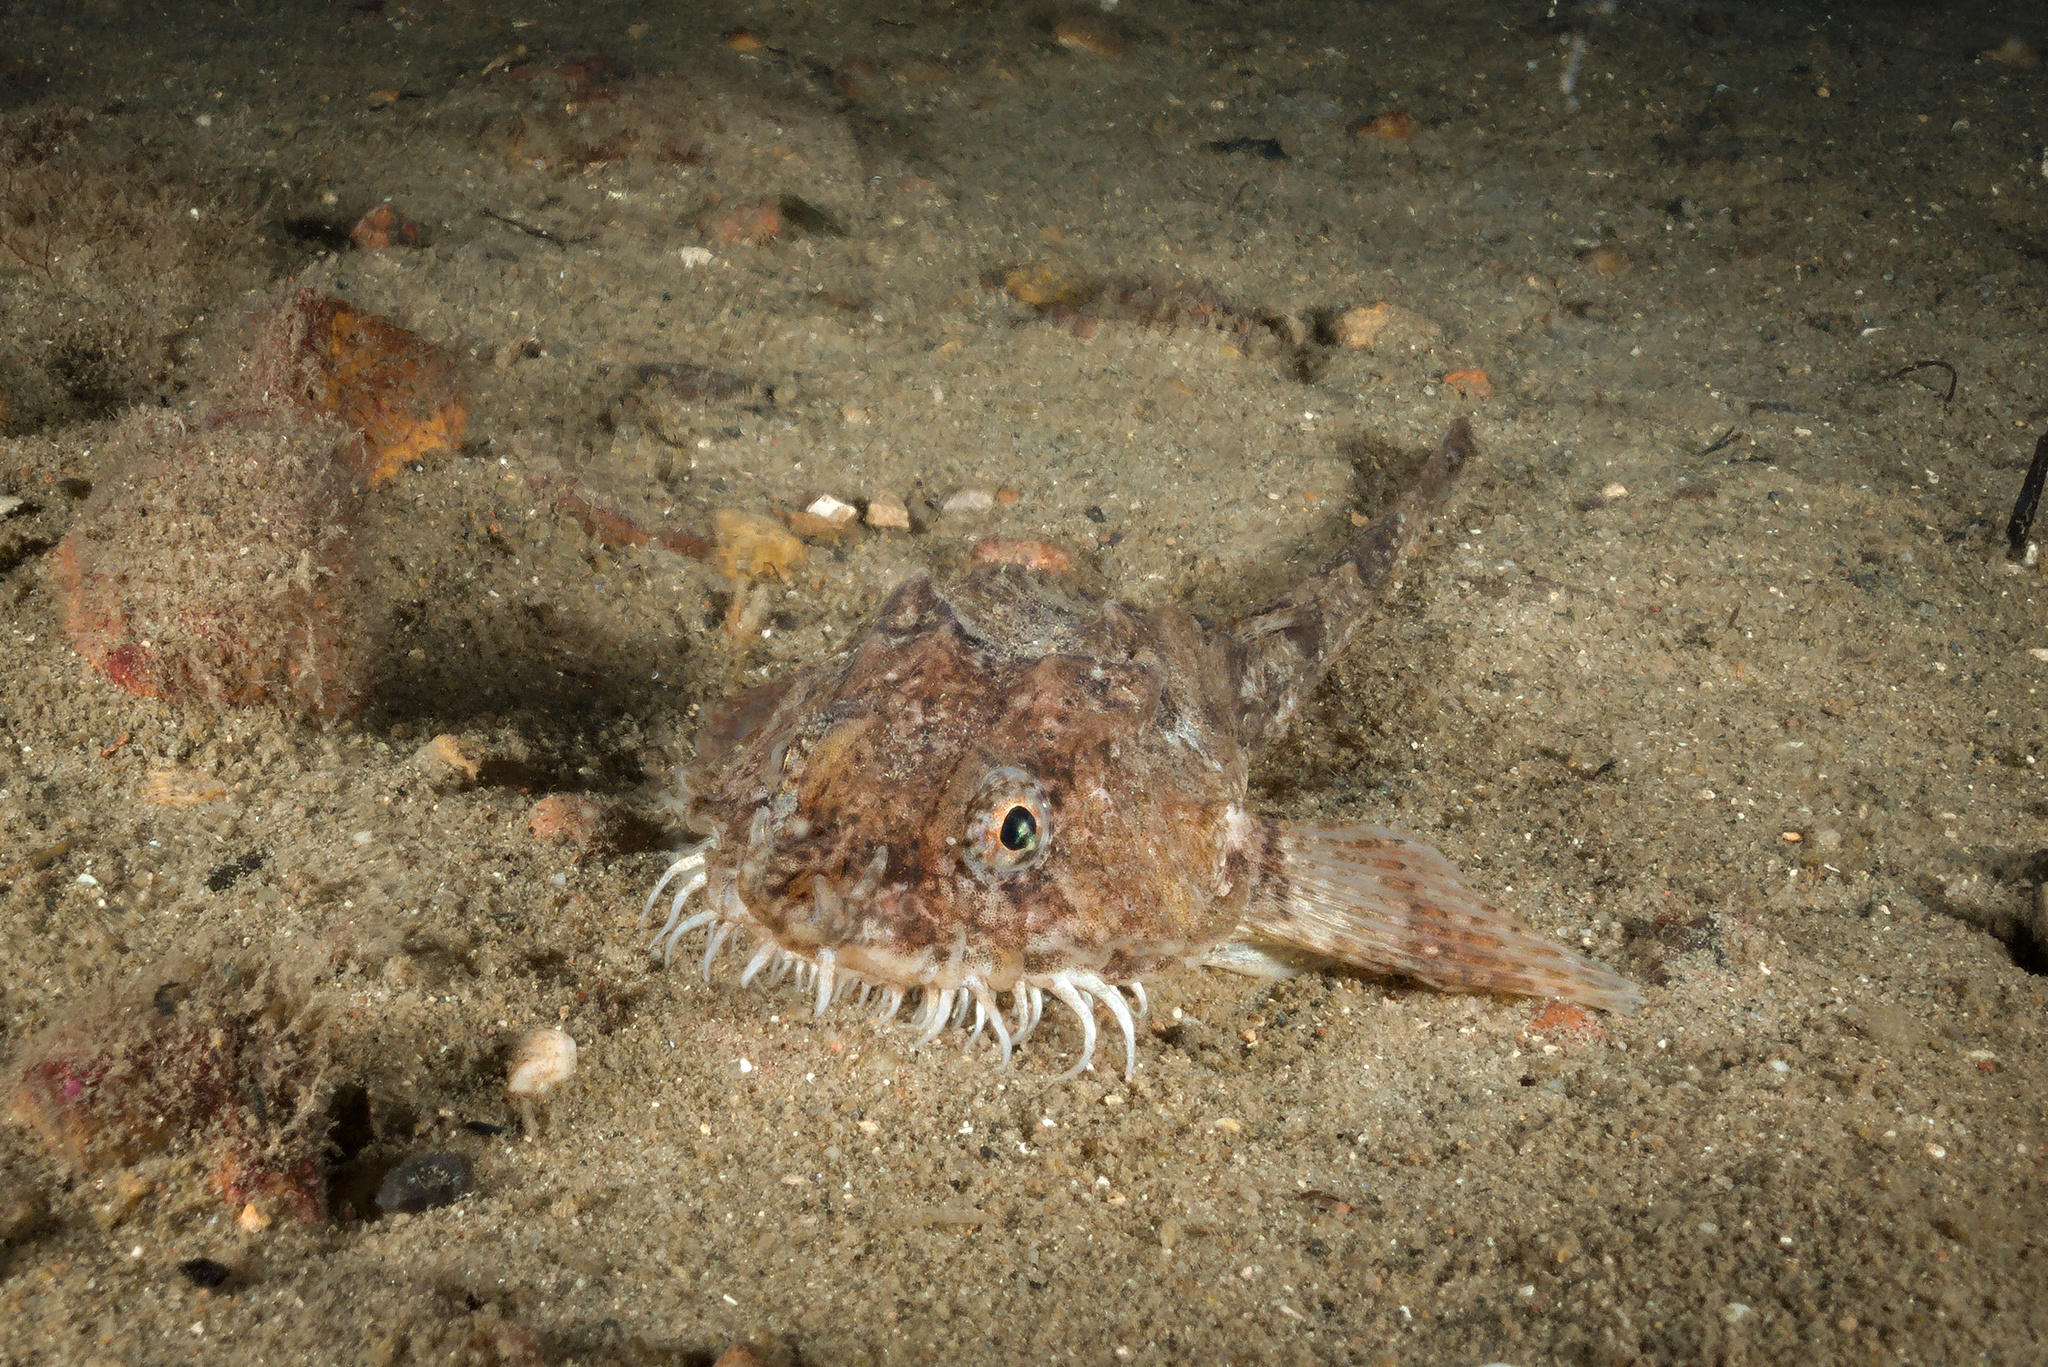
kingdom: Animalia
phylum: Chordata
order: Scorpaeniformes
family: Agonidae
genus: Agonus
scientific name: Agonus cataphractus
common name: Pogge
